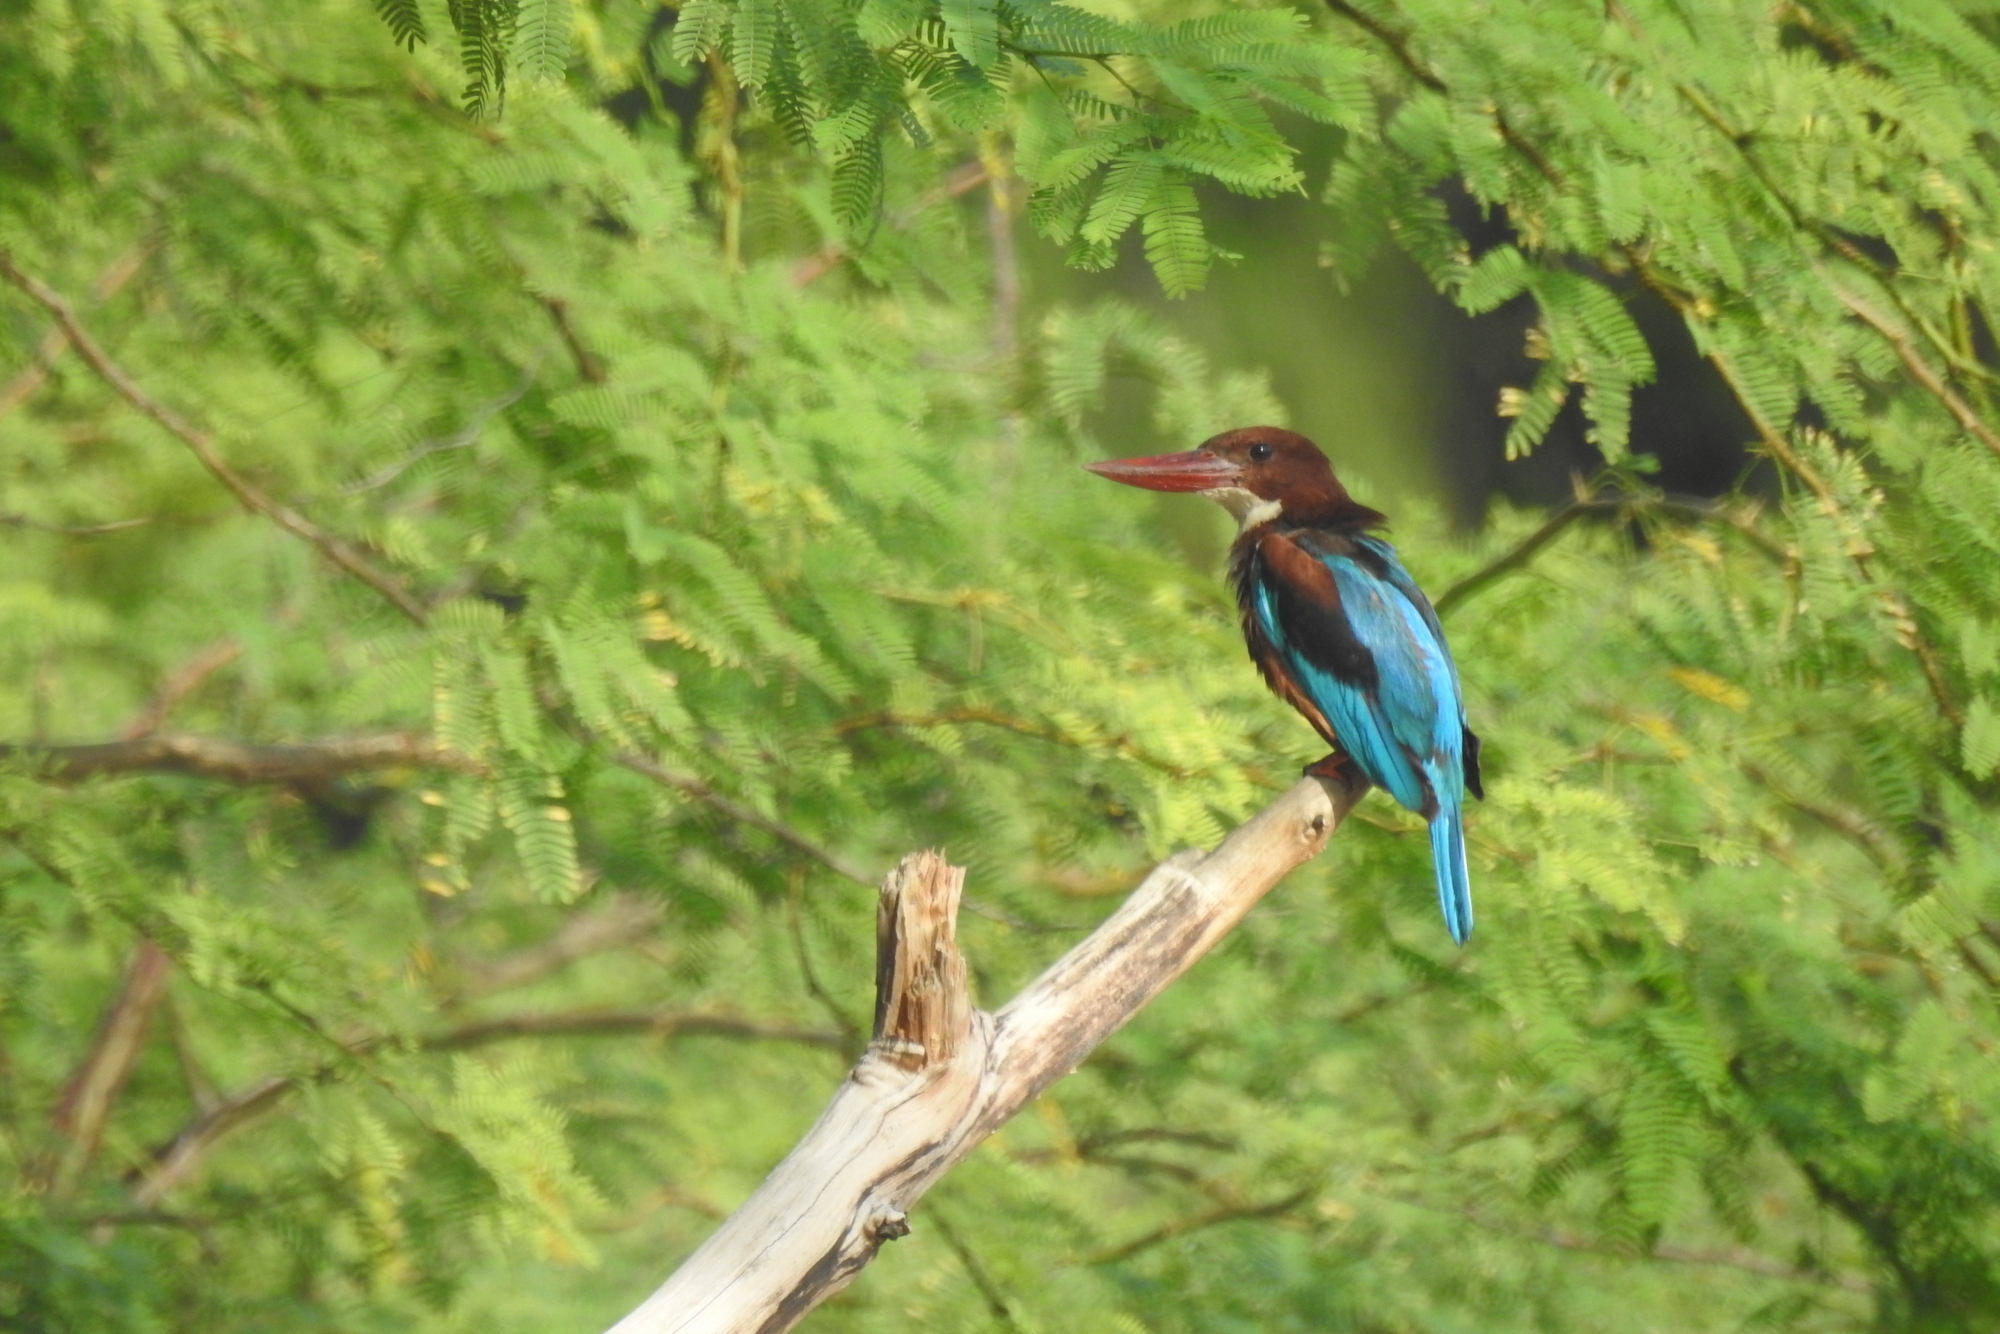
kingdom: Animalia
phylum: Chordata
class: Aves
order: Coraciiformes
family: Alcedinidae
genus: Halcyon
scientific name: Halcyon smyrnensis
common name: White-throated kingfisher
